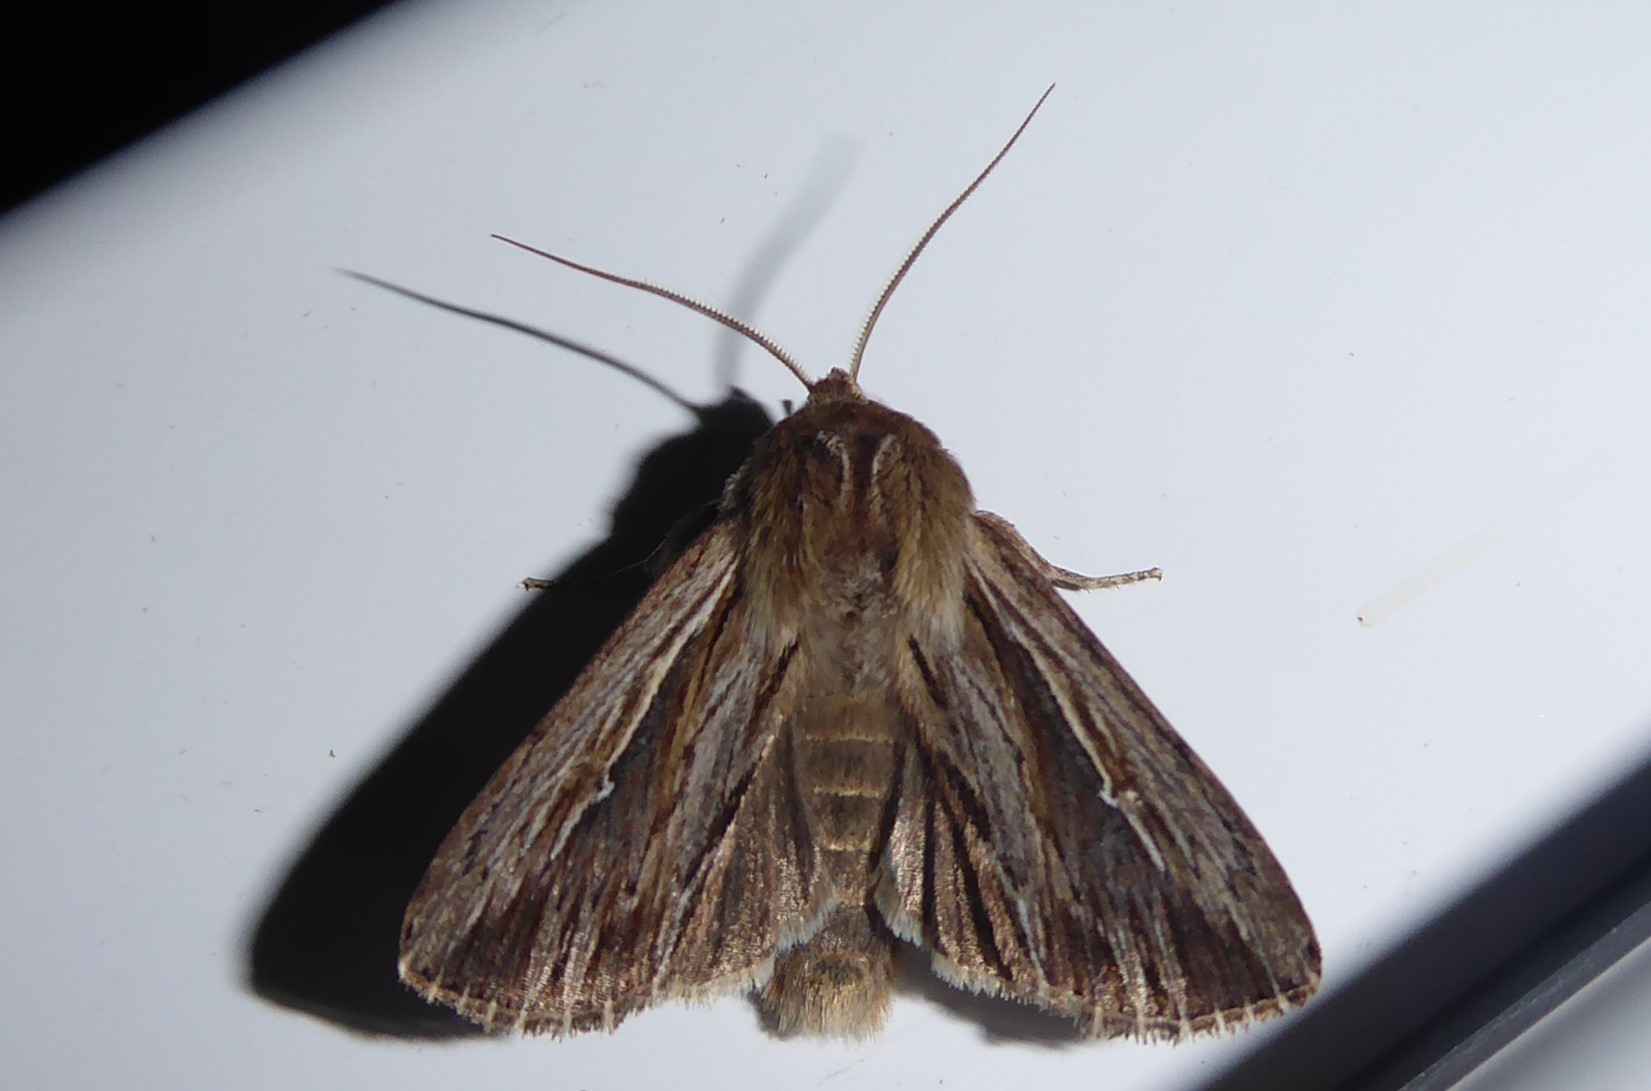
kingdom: Animalia
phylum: Arthropoda
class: Insecta
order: Lepidoptera
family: Noctuidae
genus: Persectania
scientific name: Persectania aversa
